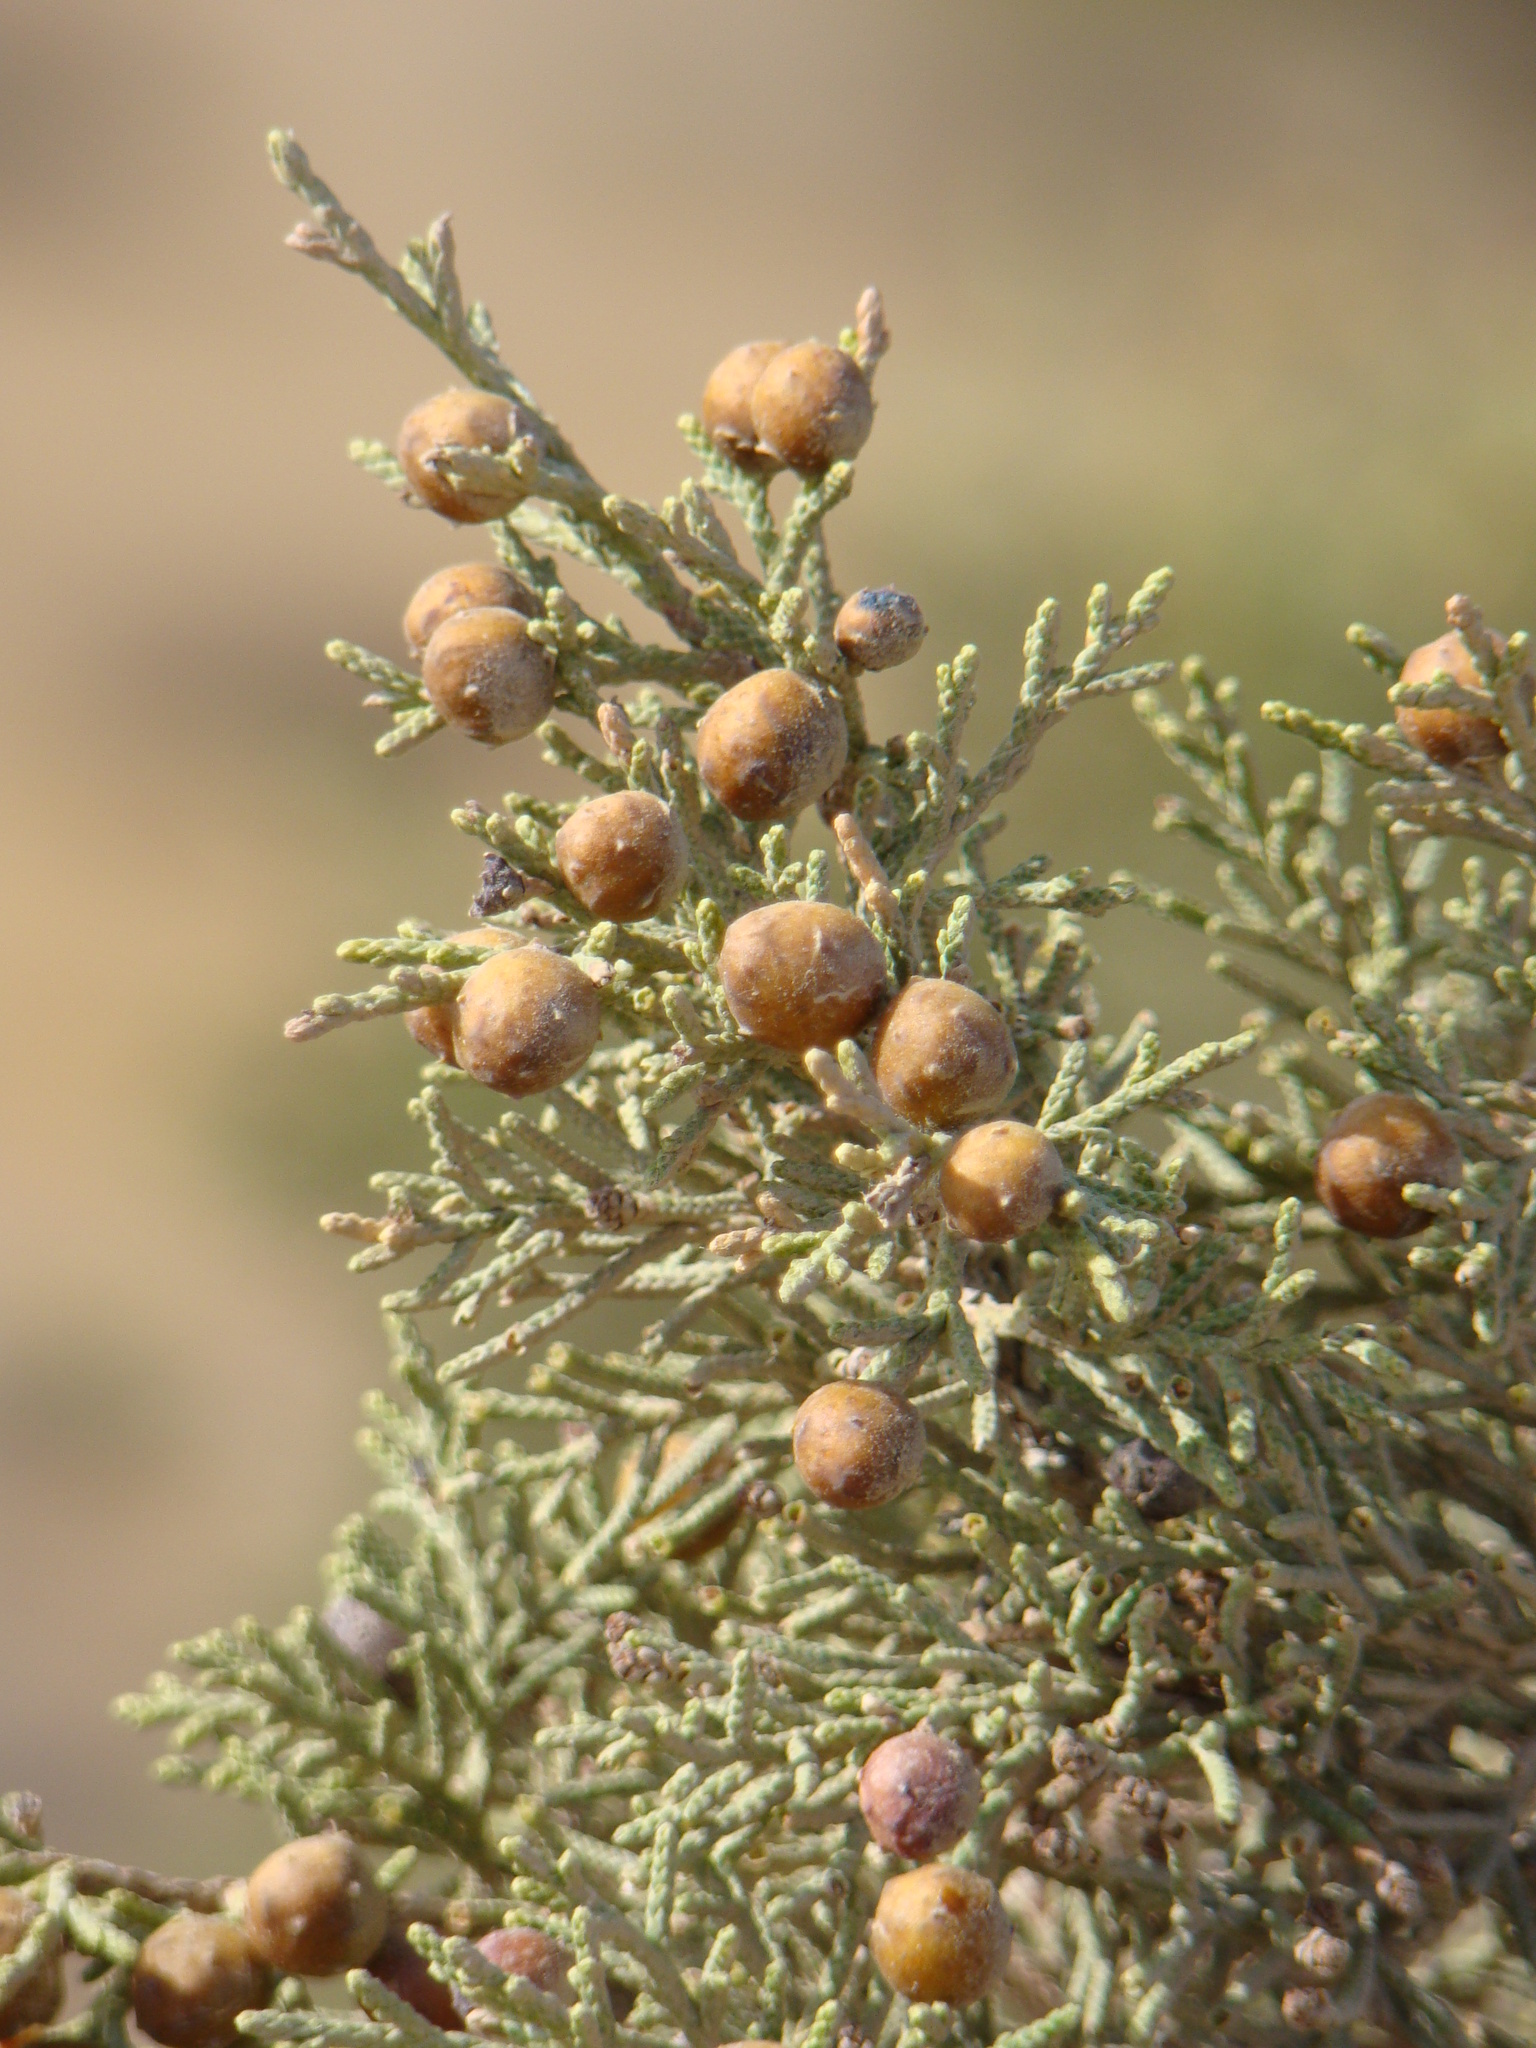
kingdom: Plantae
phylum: Tracheophyta
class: Pinopsida
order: Pinales
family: Cupressaceae
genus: Juniperus
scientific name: Juniperus phoenicea
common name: Phoenician juniper
